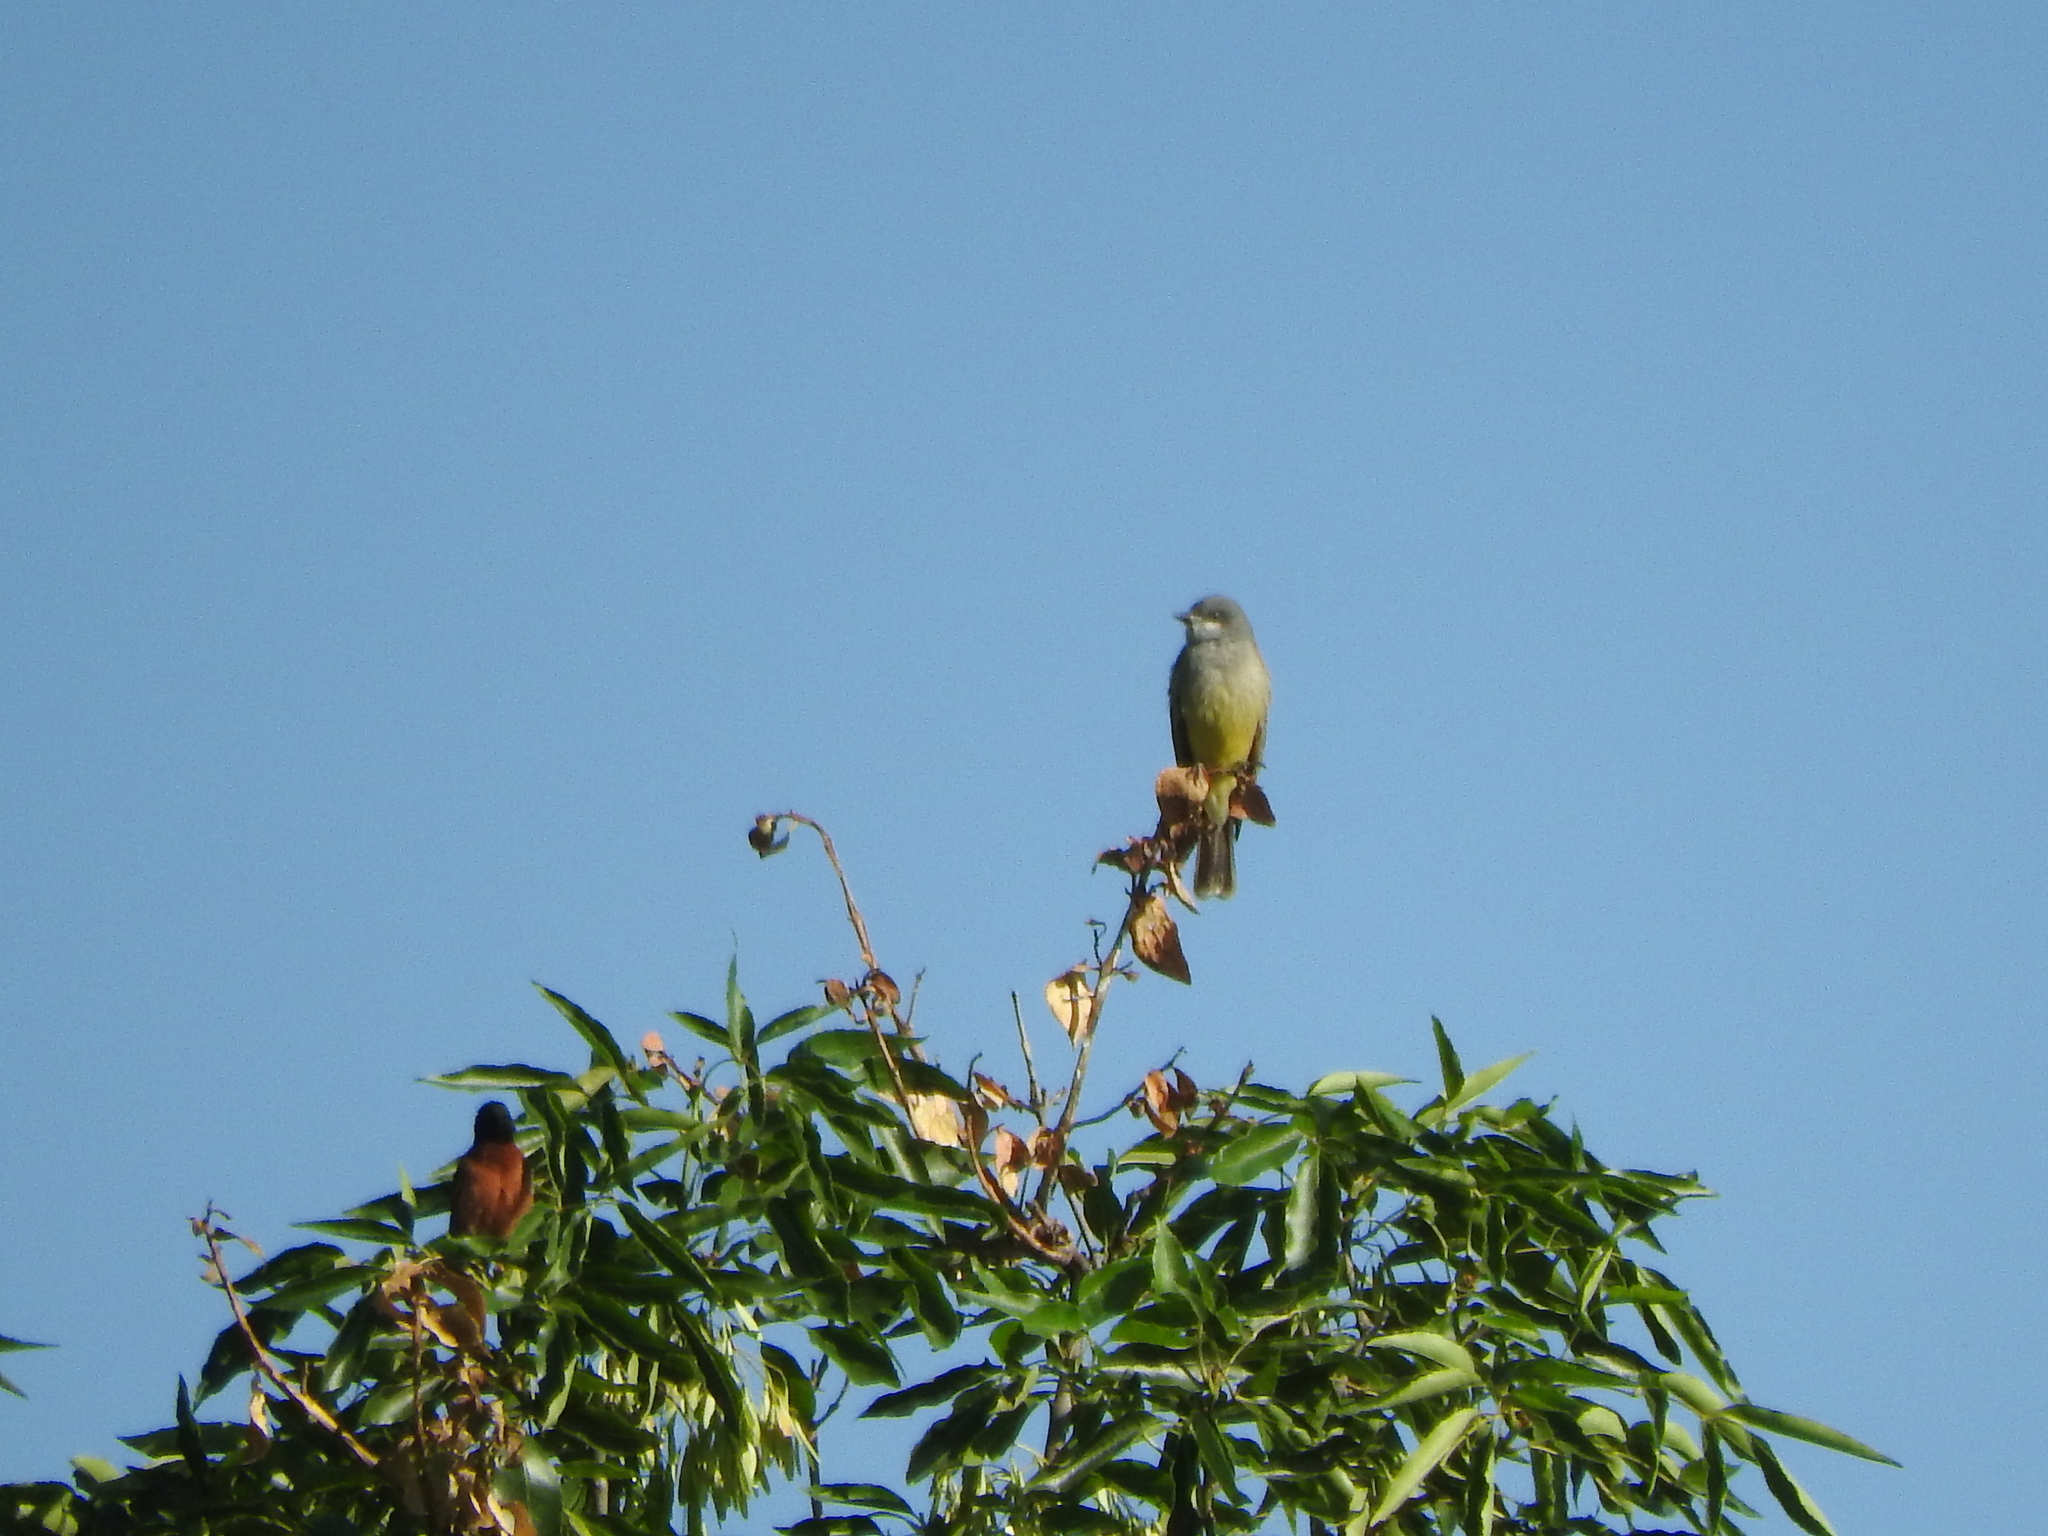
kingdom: Animalia
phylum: Chordata
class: Aves
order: Passeriformes
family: Tyrannidae
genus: Tyrannus
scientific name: Tyrannus vociferans
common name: Cassin's kingbird
